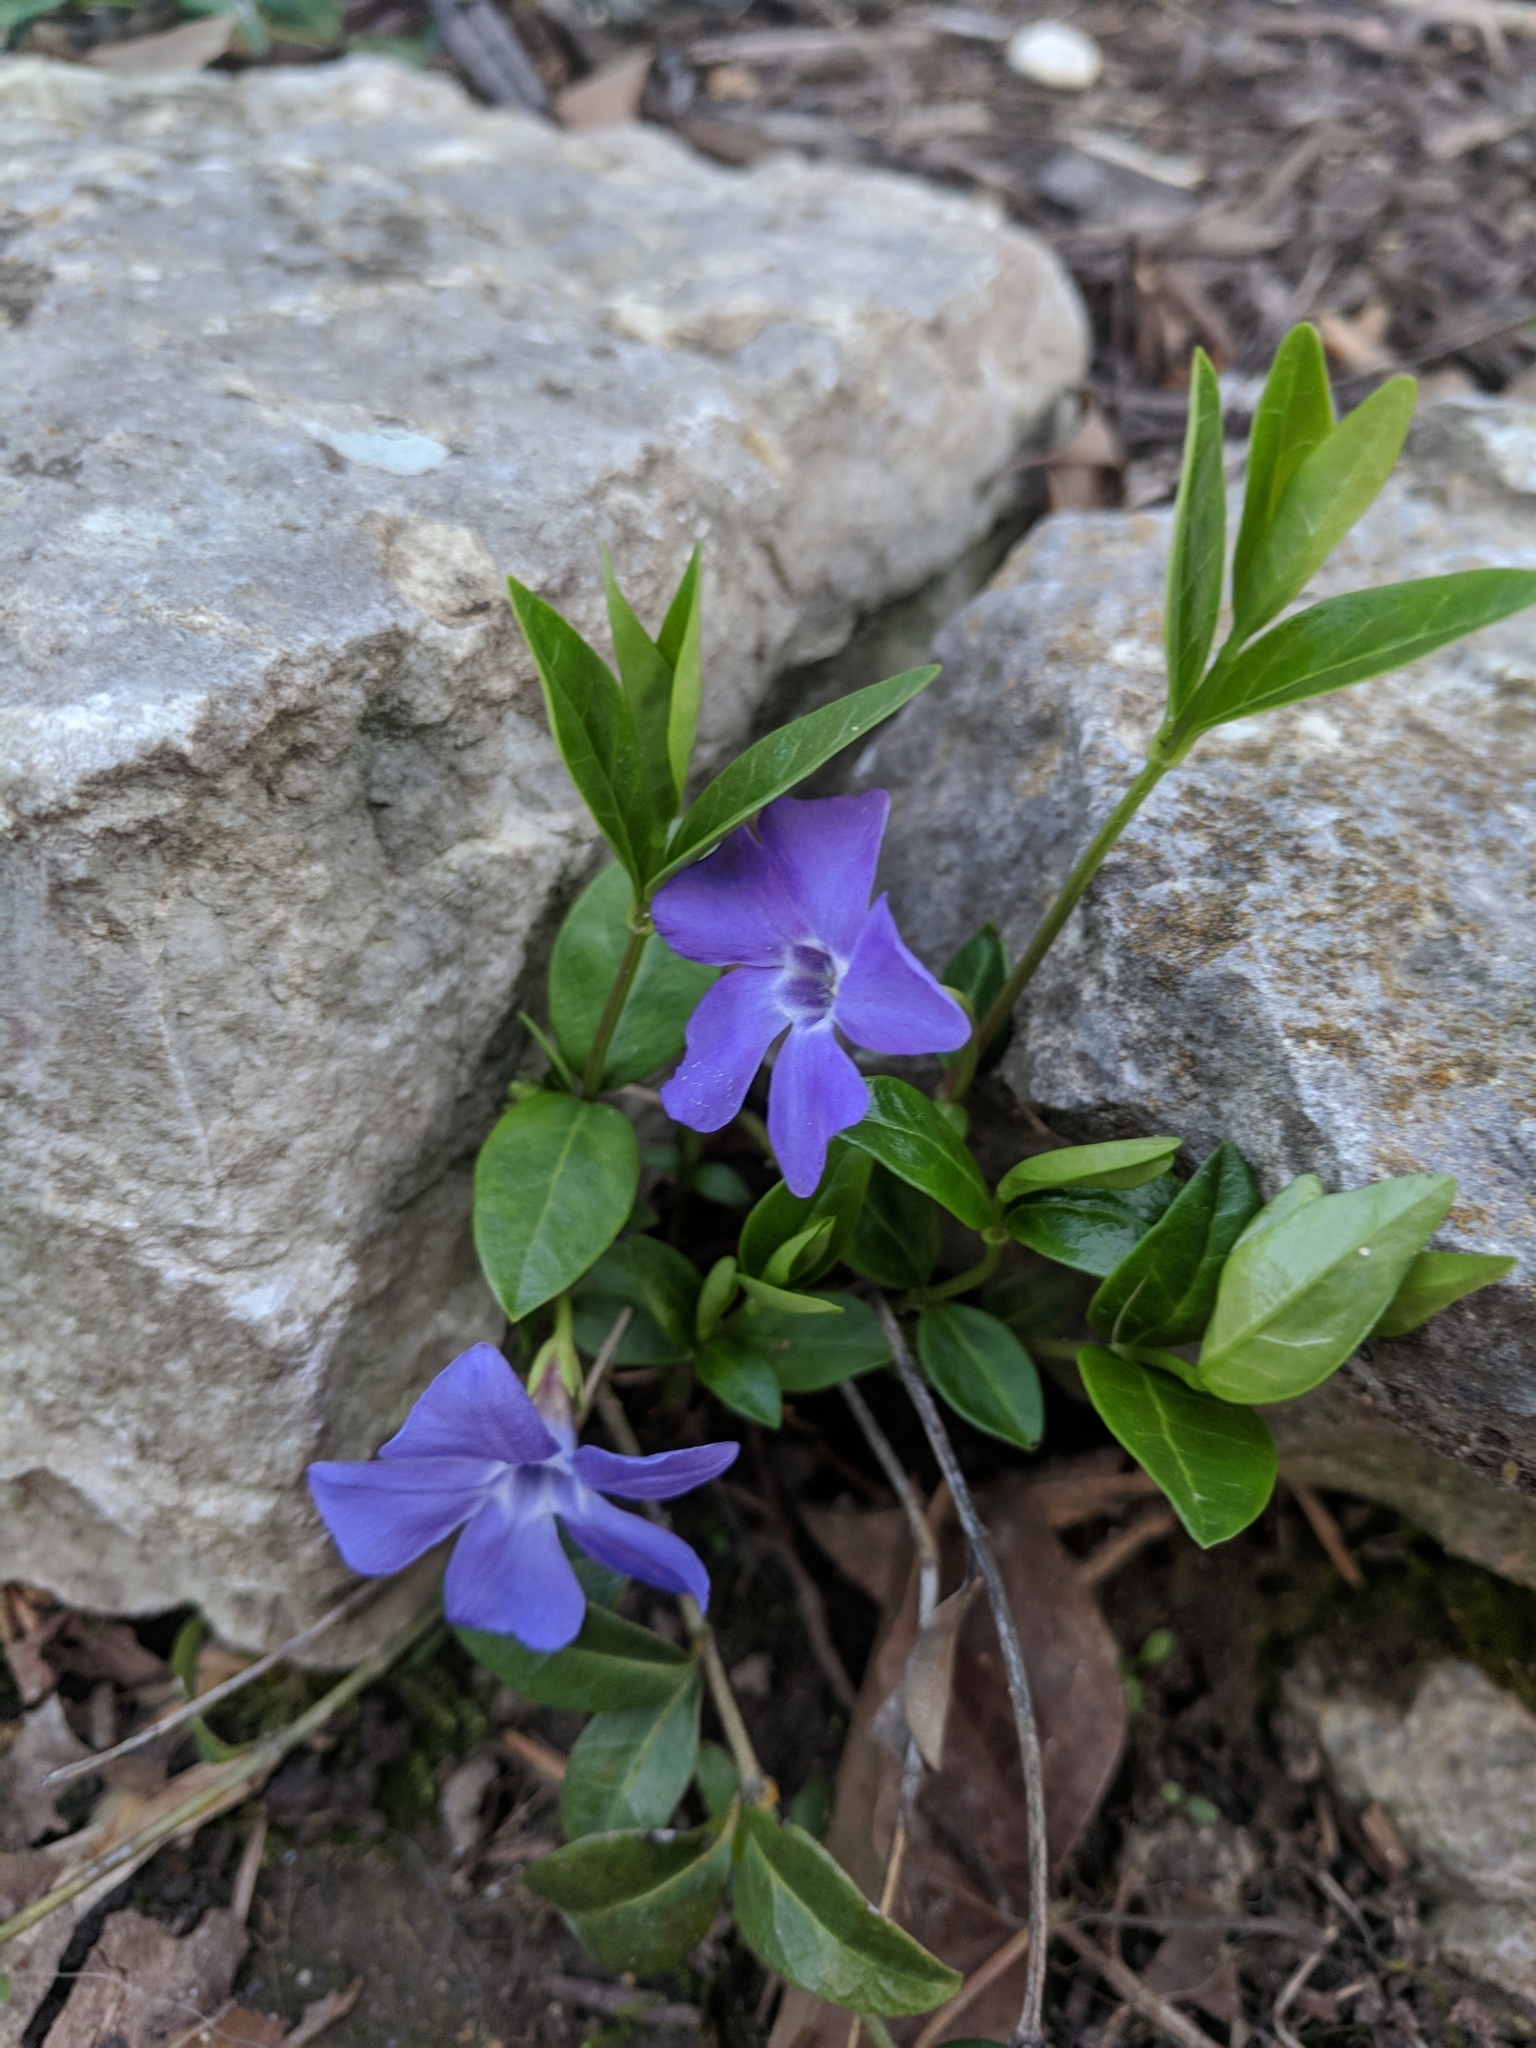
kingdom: Plantae
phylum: Tracheophyta
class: Magnoliopsida
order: Gentianales
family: Apocynaceae
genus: Vinca
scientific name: Vinca minor
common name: Lesser periwinkle
